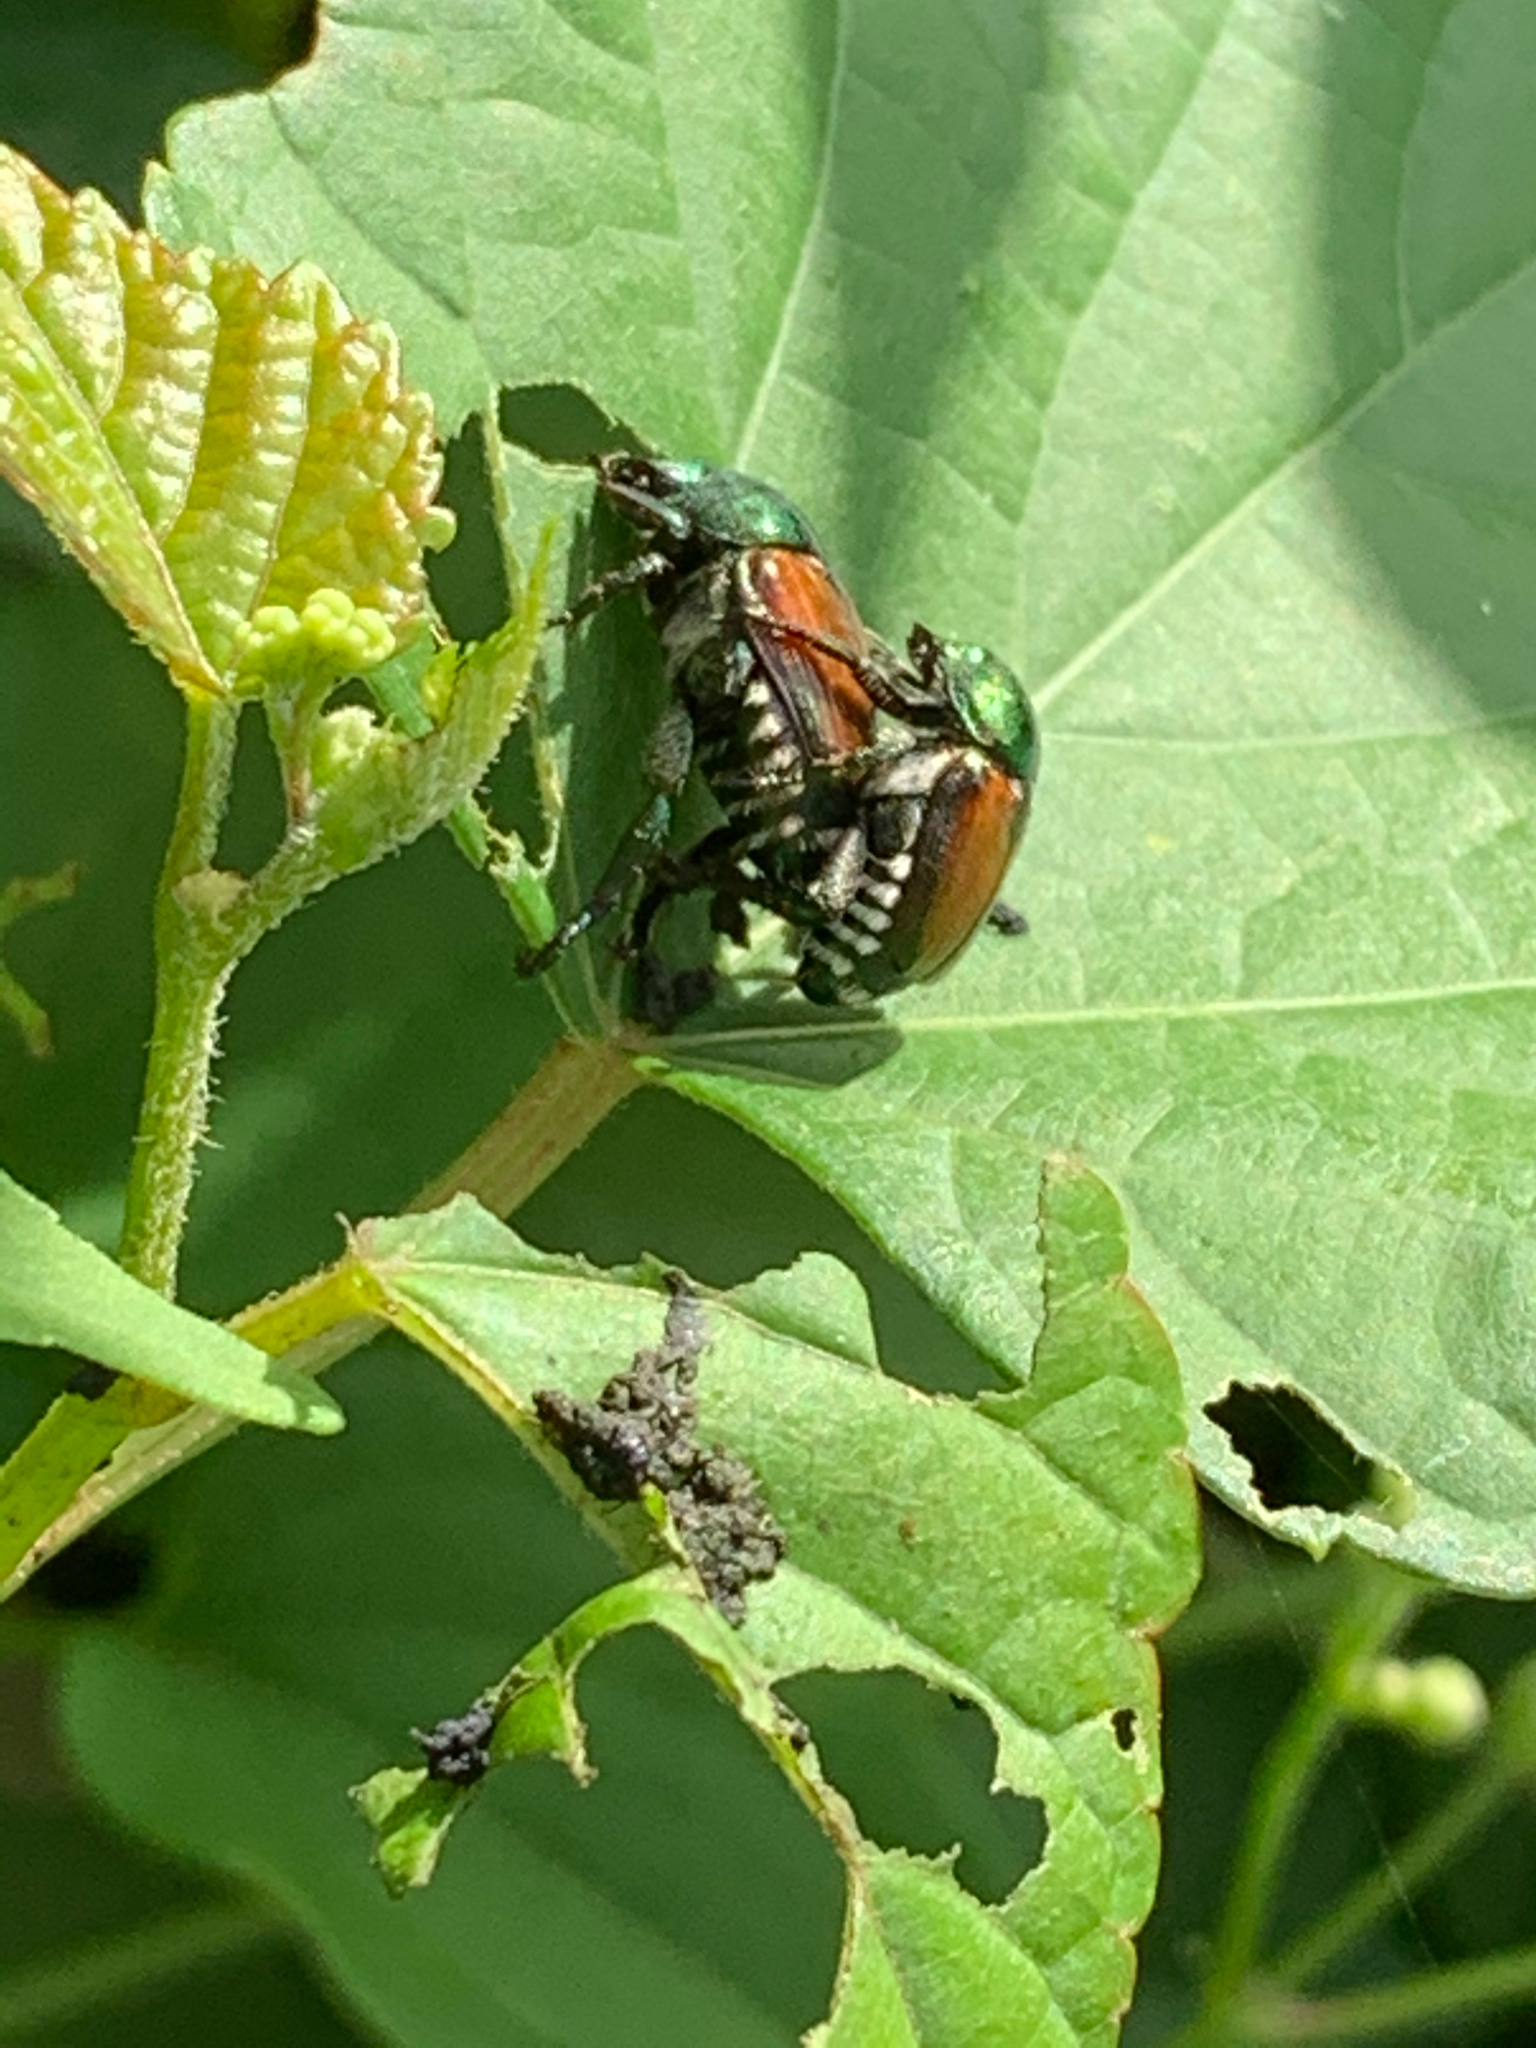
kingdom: Animalia
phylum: Arthropoda
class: Insecta
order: Coleoptera
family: Scarabaeidae
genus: Popillia
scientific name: Popillia japonica
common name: Japanese beetle
